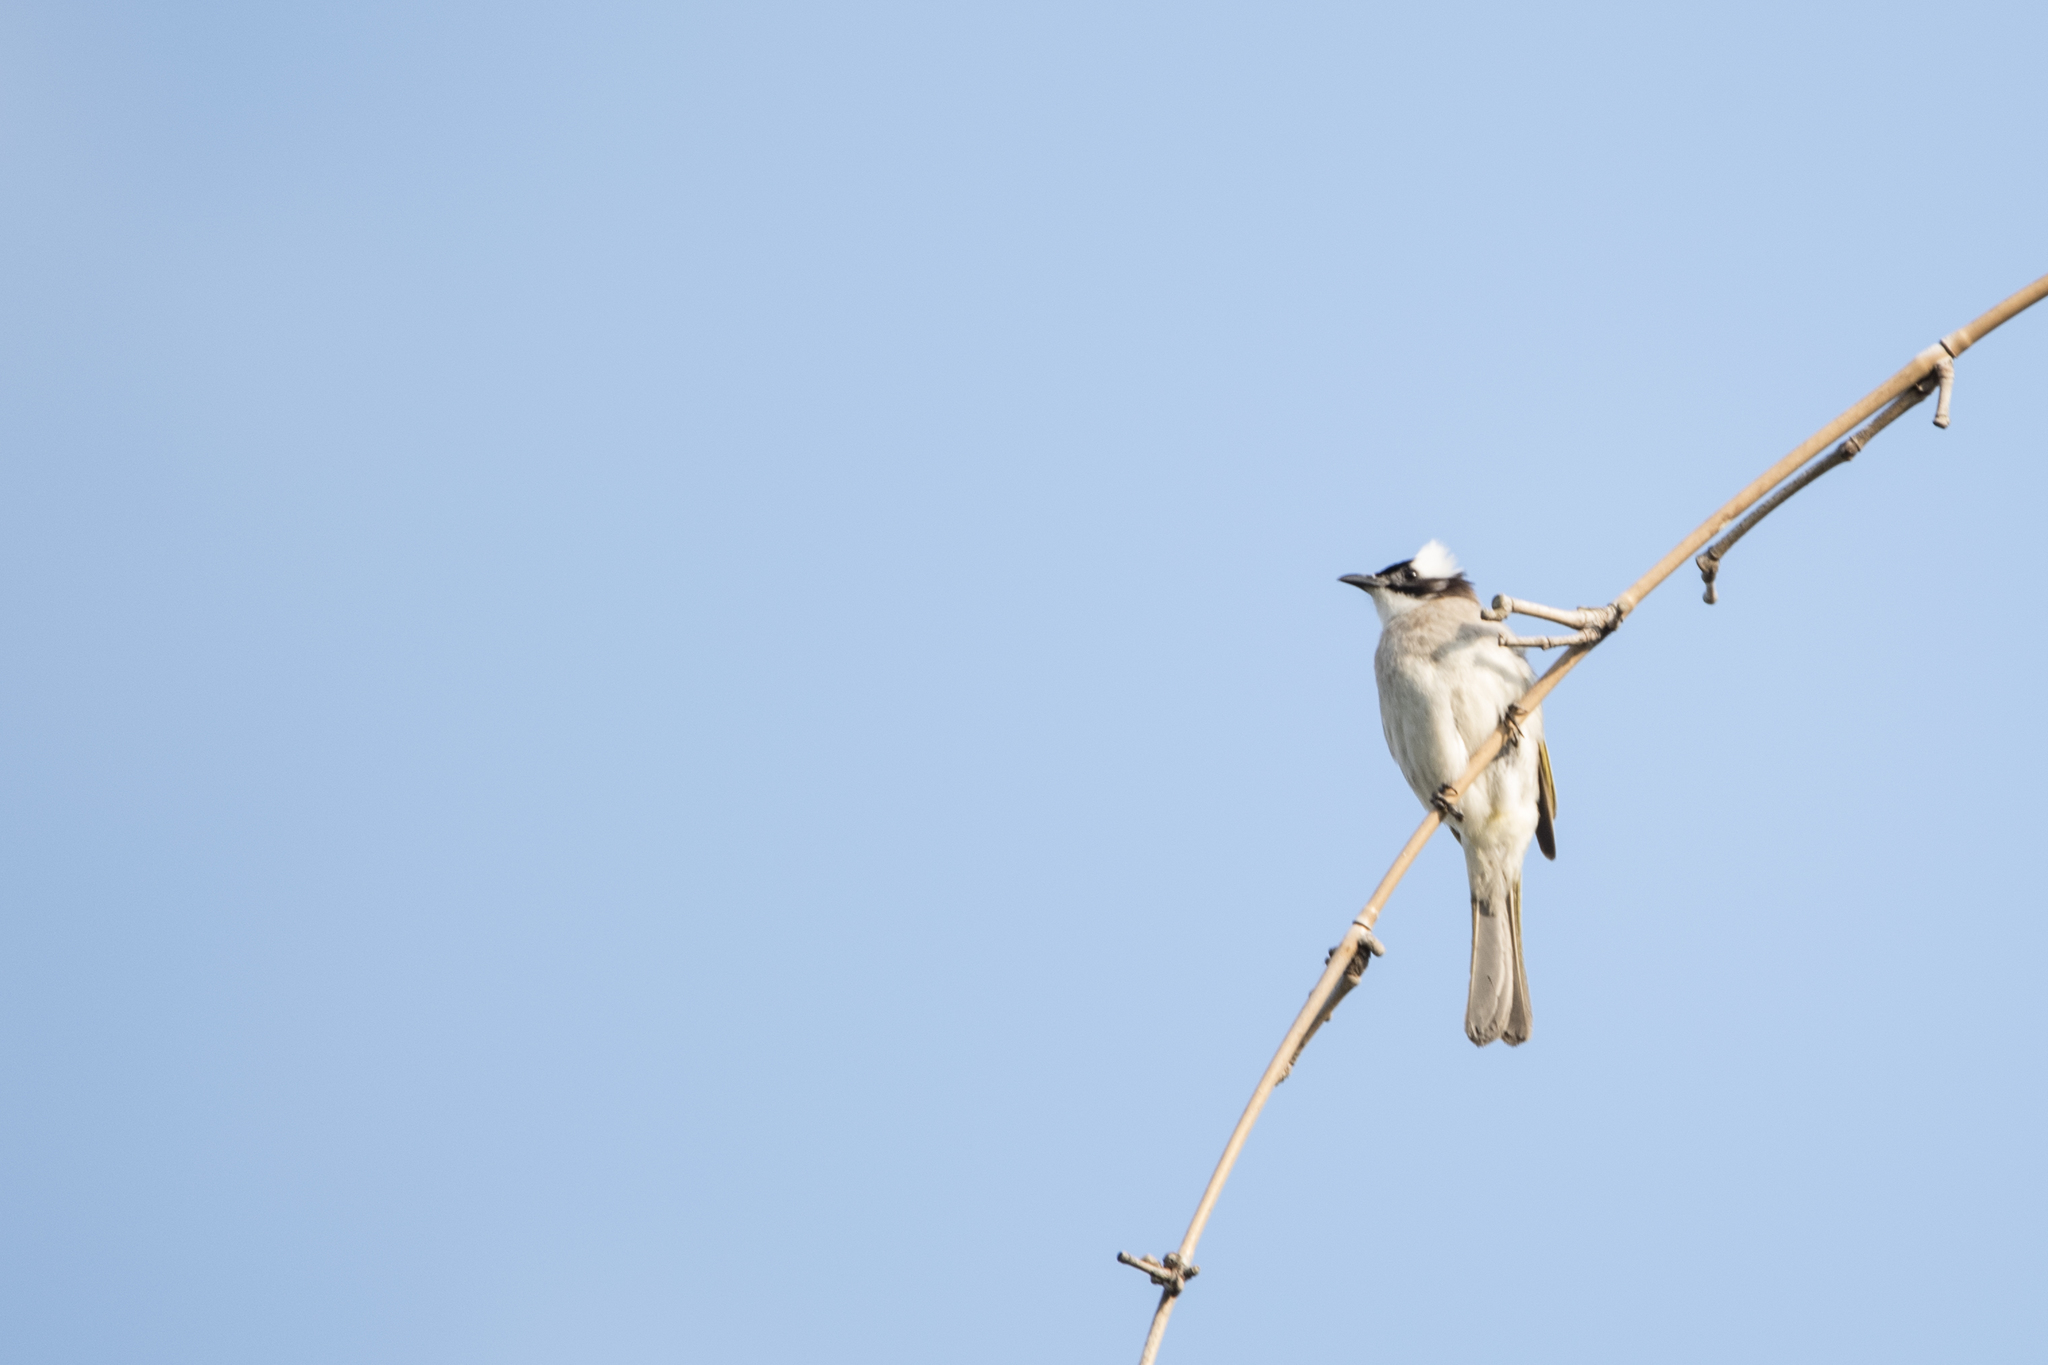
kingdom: Animalia
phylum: Chordata
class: Aves
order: Passeriformes
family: Pycnonotidae
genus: Pycnonotus
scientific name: Pycnonotus sinensis
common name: Light-vented bulbul
